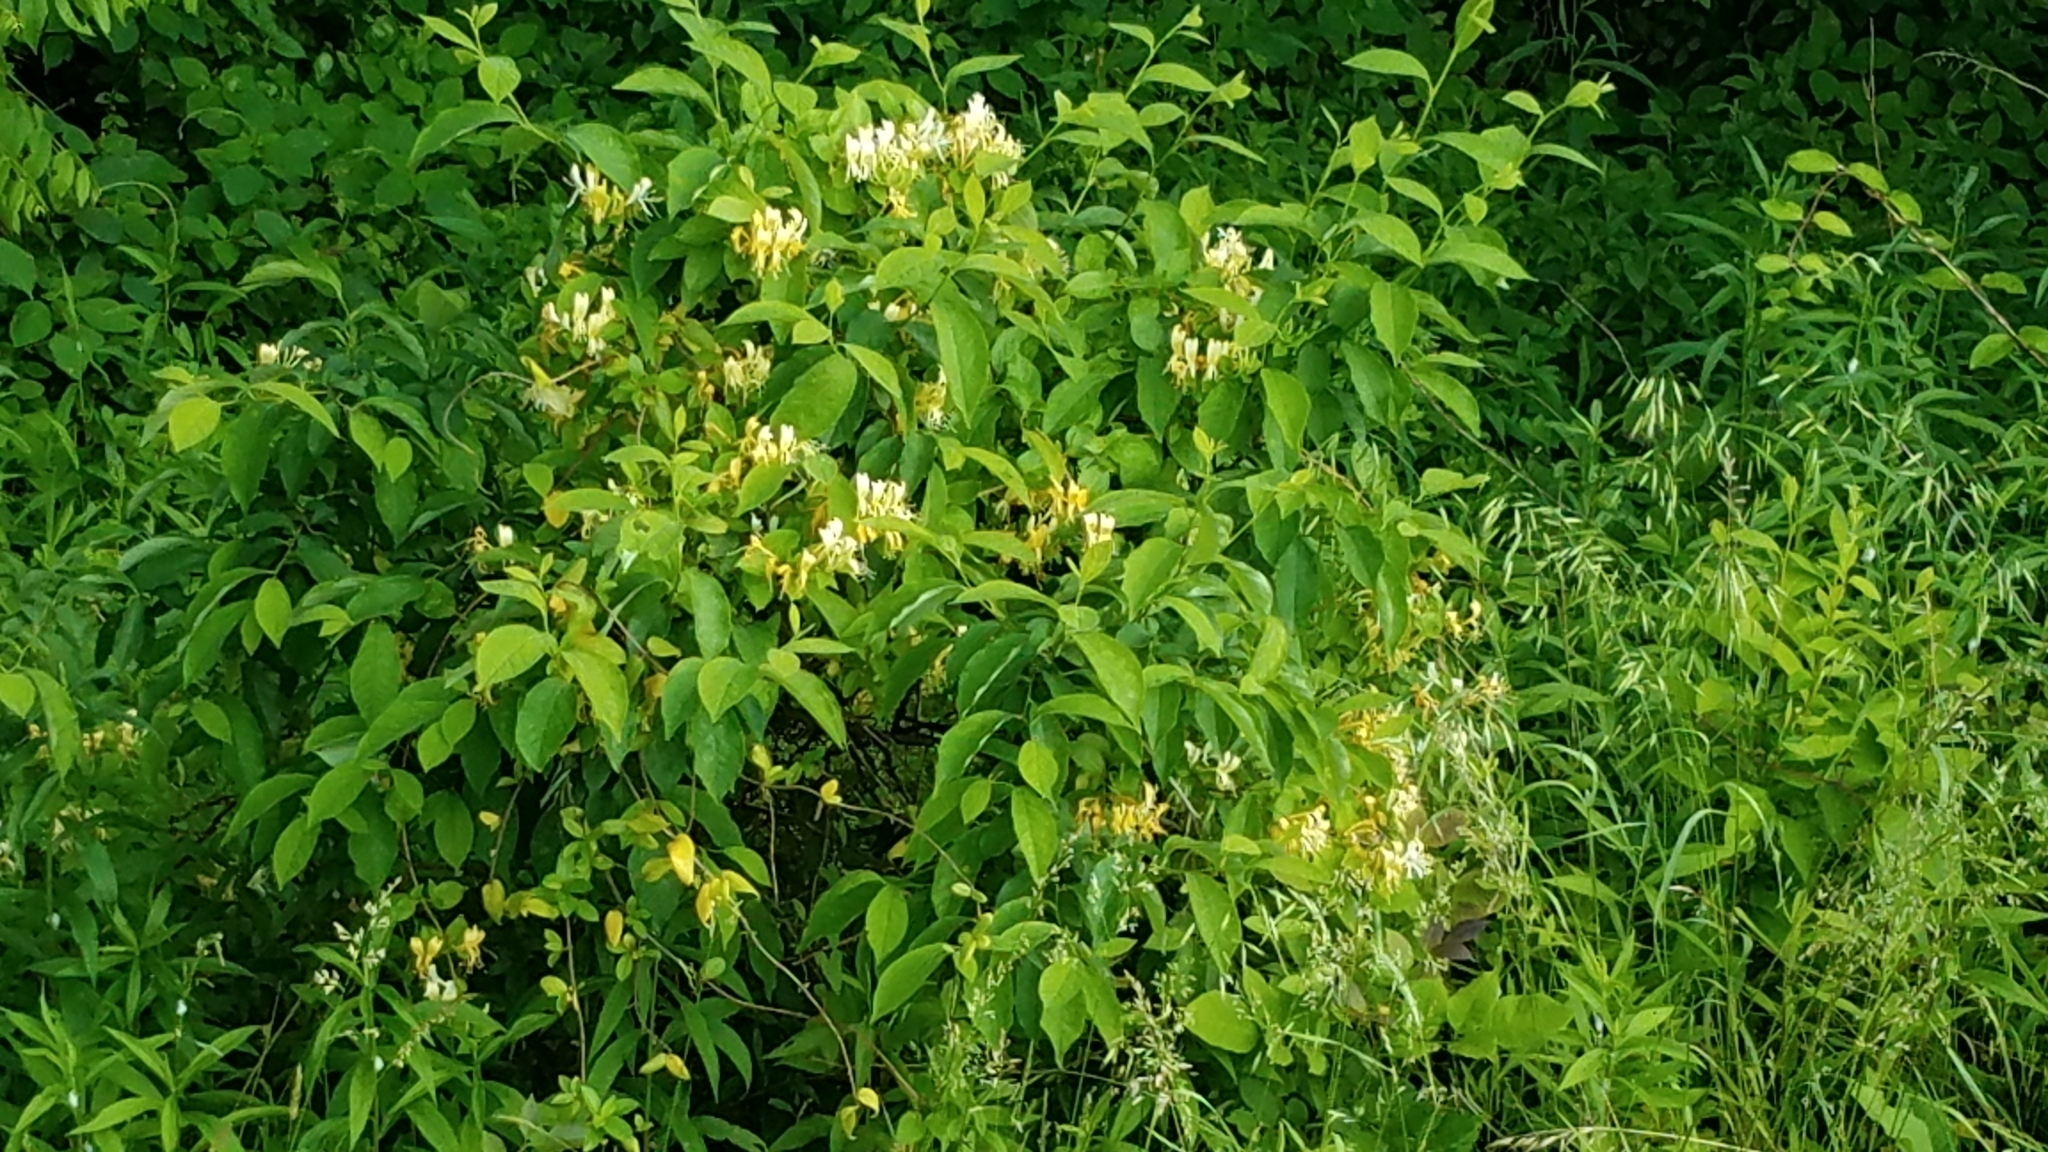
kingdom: Plantae
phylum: Tracheophyta
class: Magnoliopsida
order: Dipsacales
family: Caprifoliaceae
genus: Lonicera
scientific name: Lonicera japonica
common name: Japanese honeysuckle
